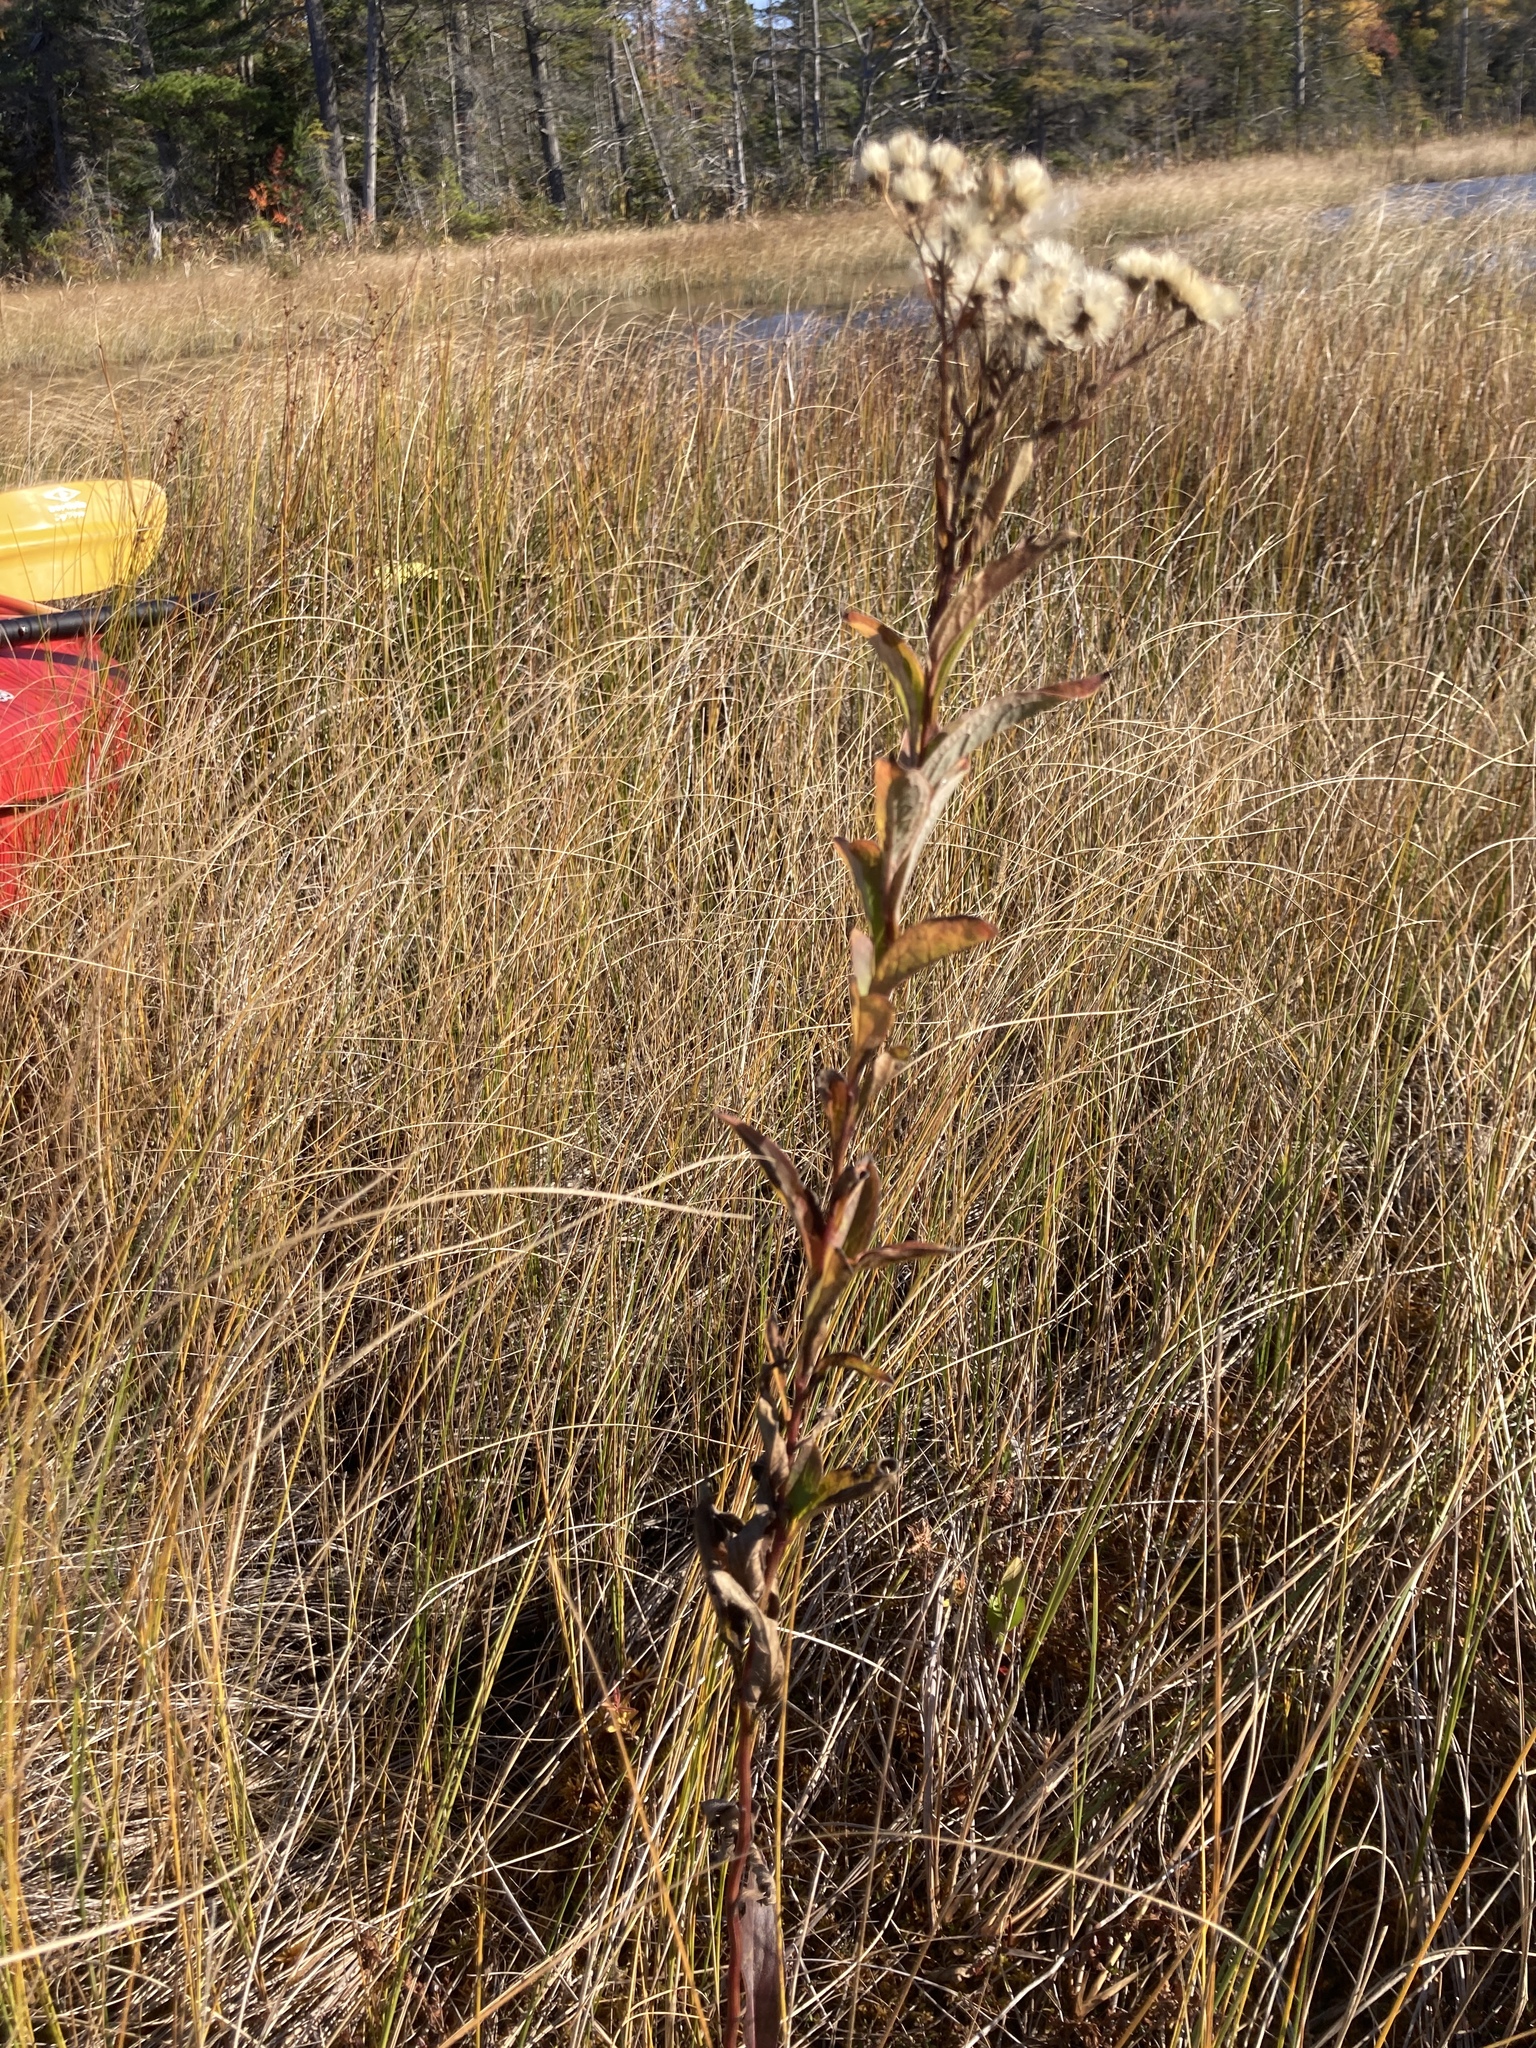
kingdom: Plantae
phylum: Tracheophyta
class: Magnoliopsida
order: Asterales
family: Asteraceae
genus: Doellingeria
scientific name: Doellingeria umbellata
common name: Flat-top white aster
